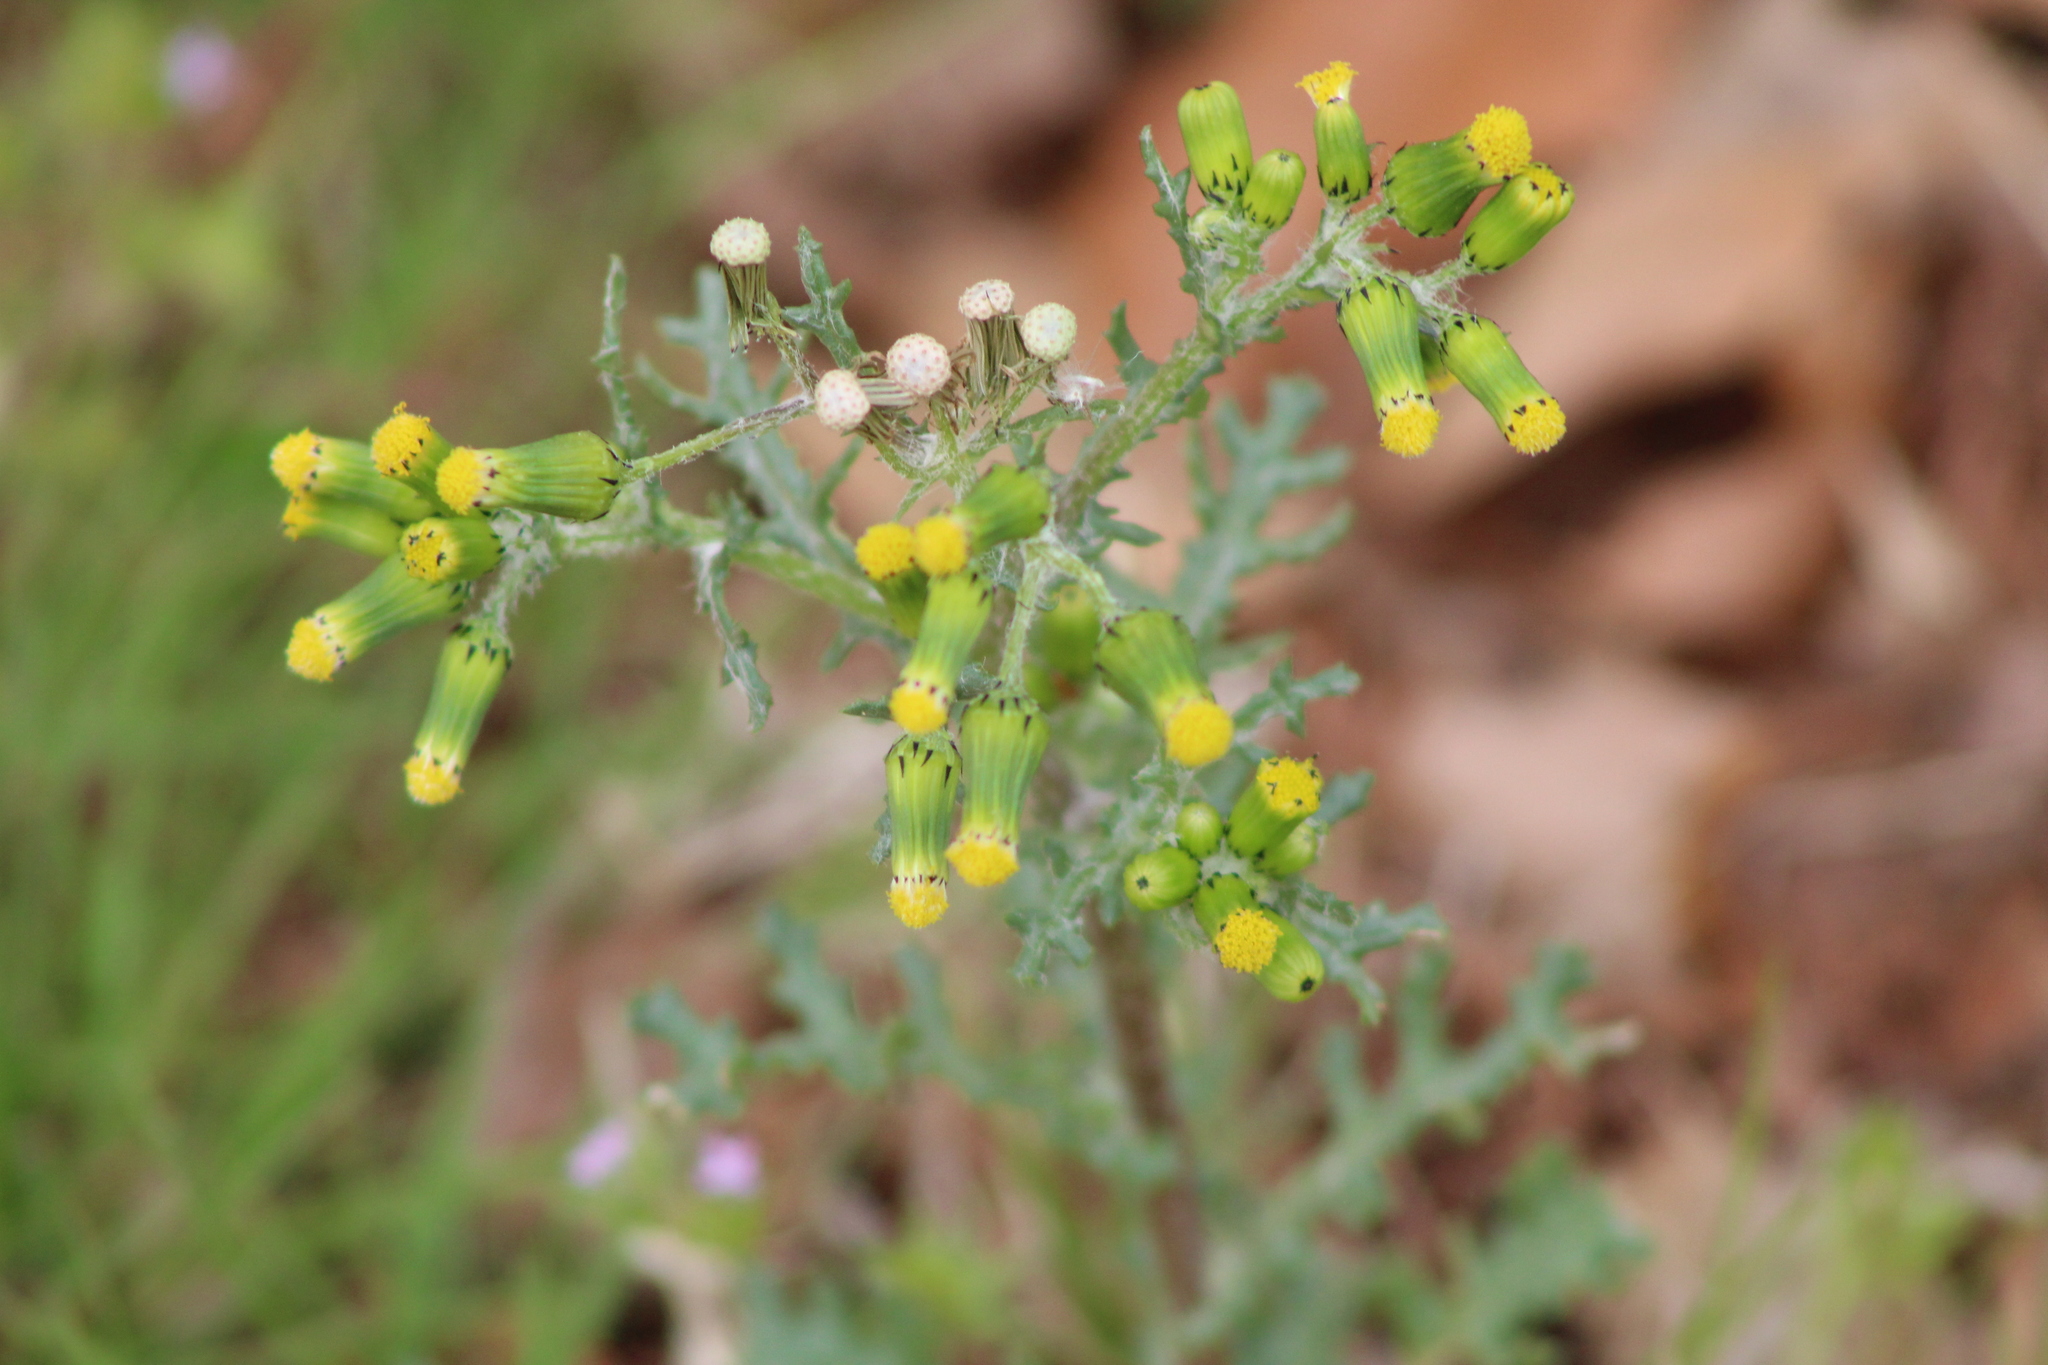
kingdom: Plantae
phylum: Tracheophyta
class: Magnoliopsida
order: Asterales
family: Asteraceae
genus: Senecio
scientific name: Senecio vulgaris
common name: Old-man-in-the-spring
